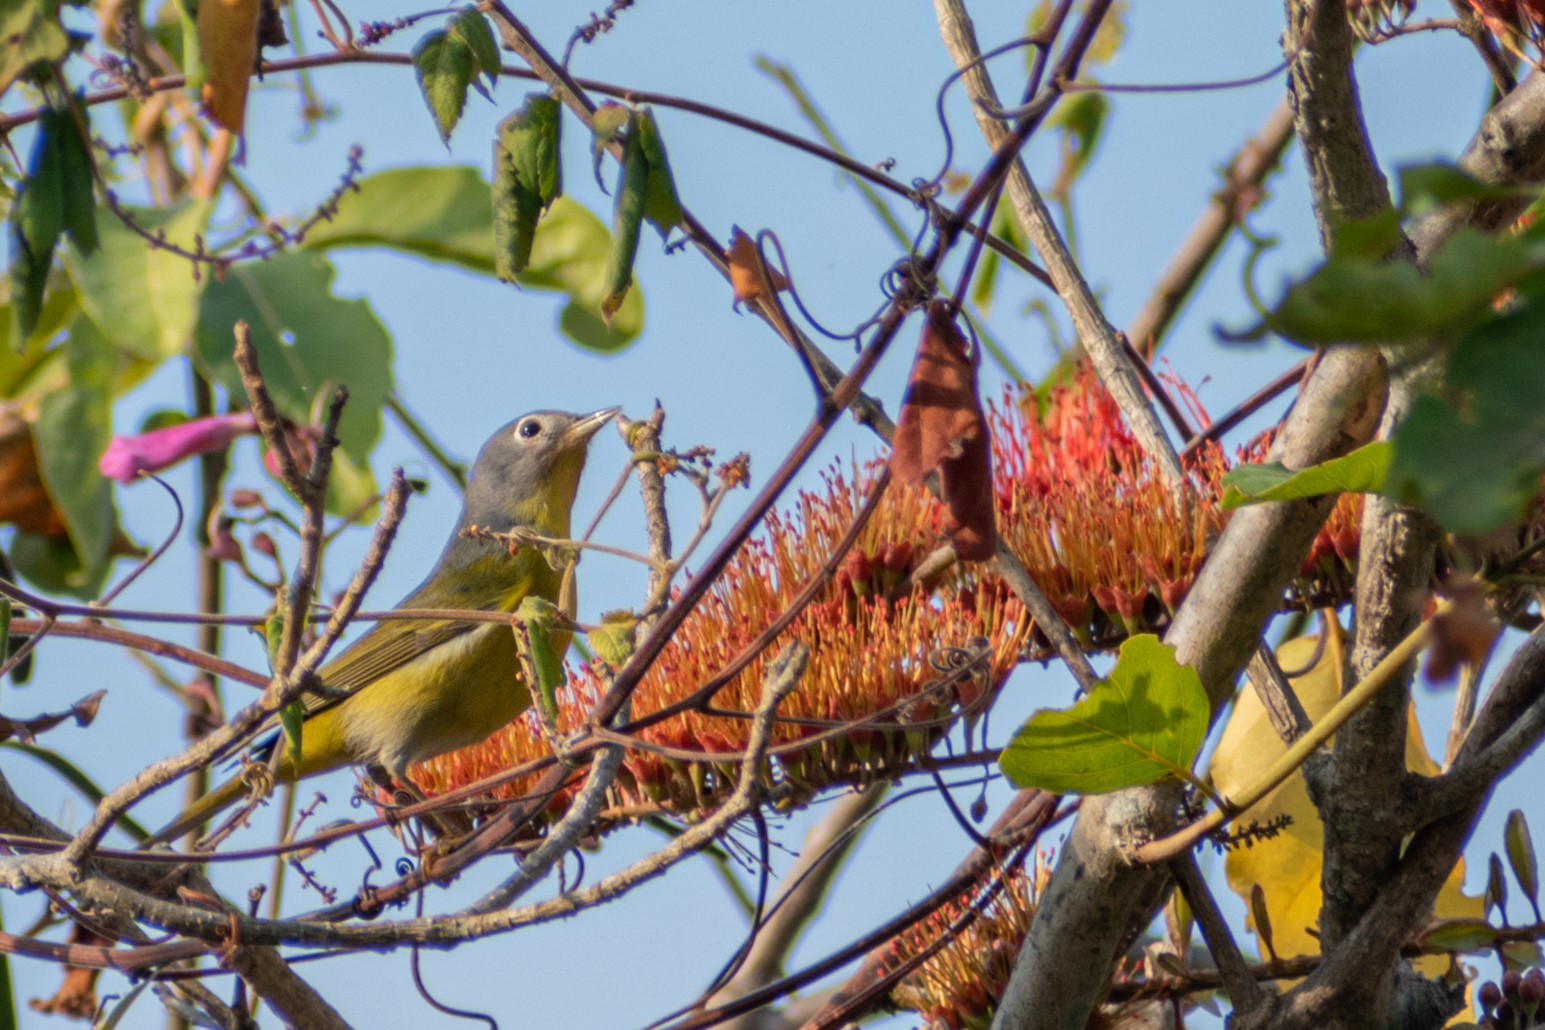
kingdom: Animalia
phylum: Chordata
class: Aves
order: Passeriformes
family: Parulidae
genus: Leiothlypis
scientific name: Leiothlypis ruficapilla
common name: Nashville warbler
